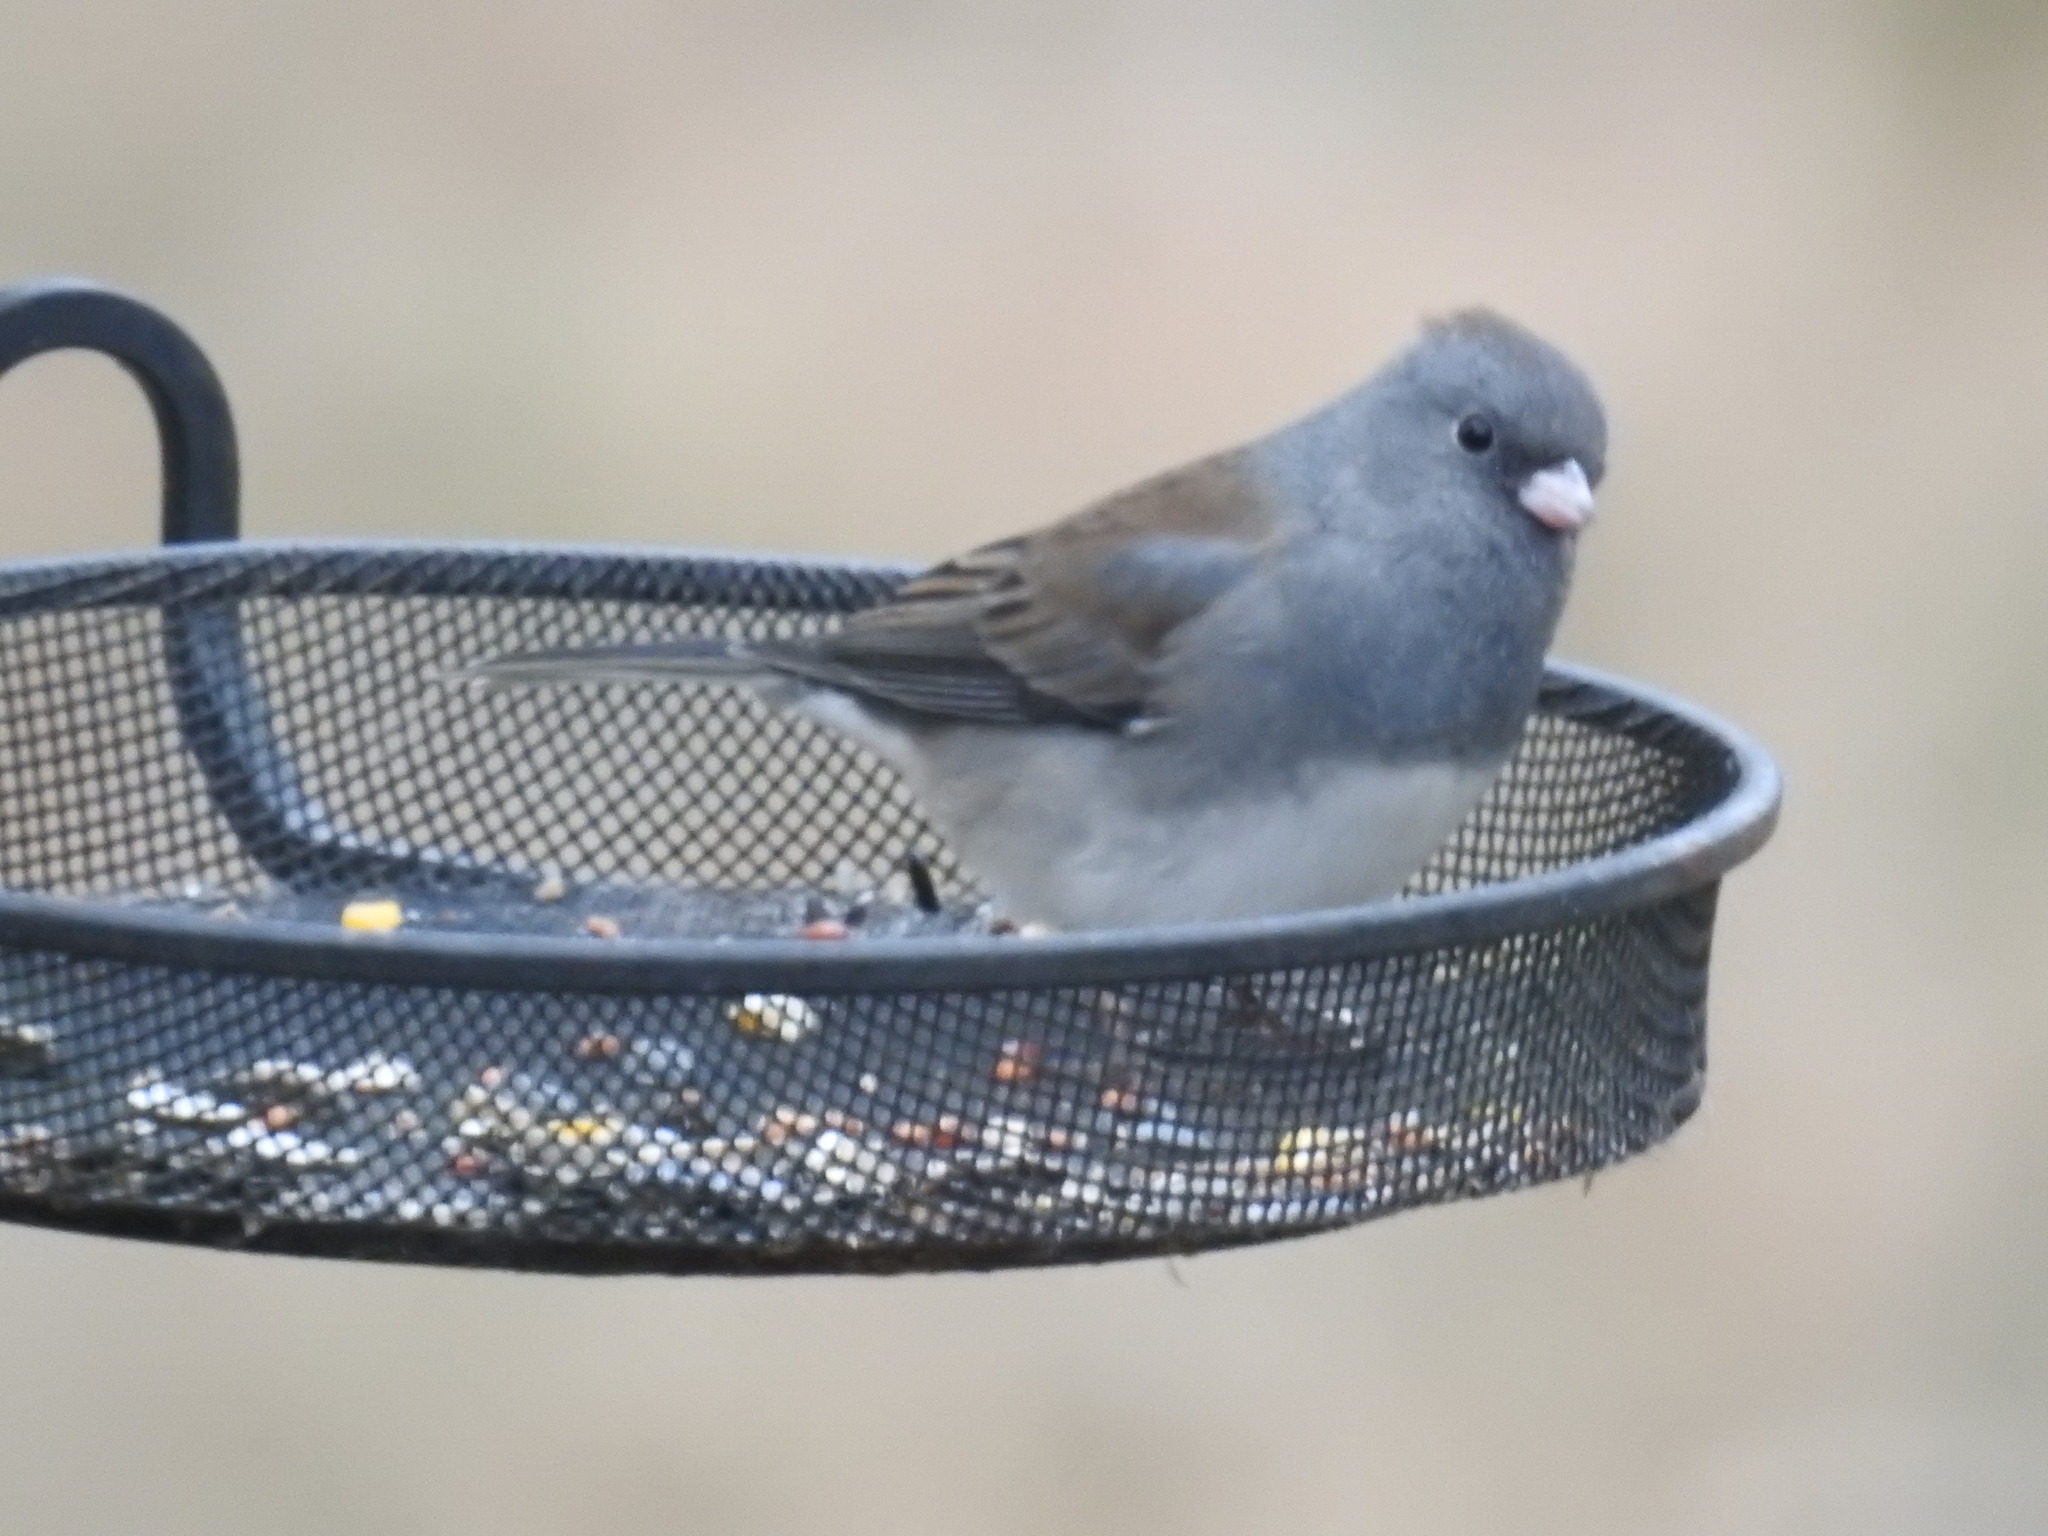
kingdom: Animalia
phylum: Chordata
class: Aves
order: Passeriformes
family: Passerellidae
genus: Junco
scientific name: Junco hyemalis
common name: Dark-eyed junco
